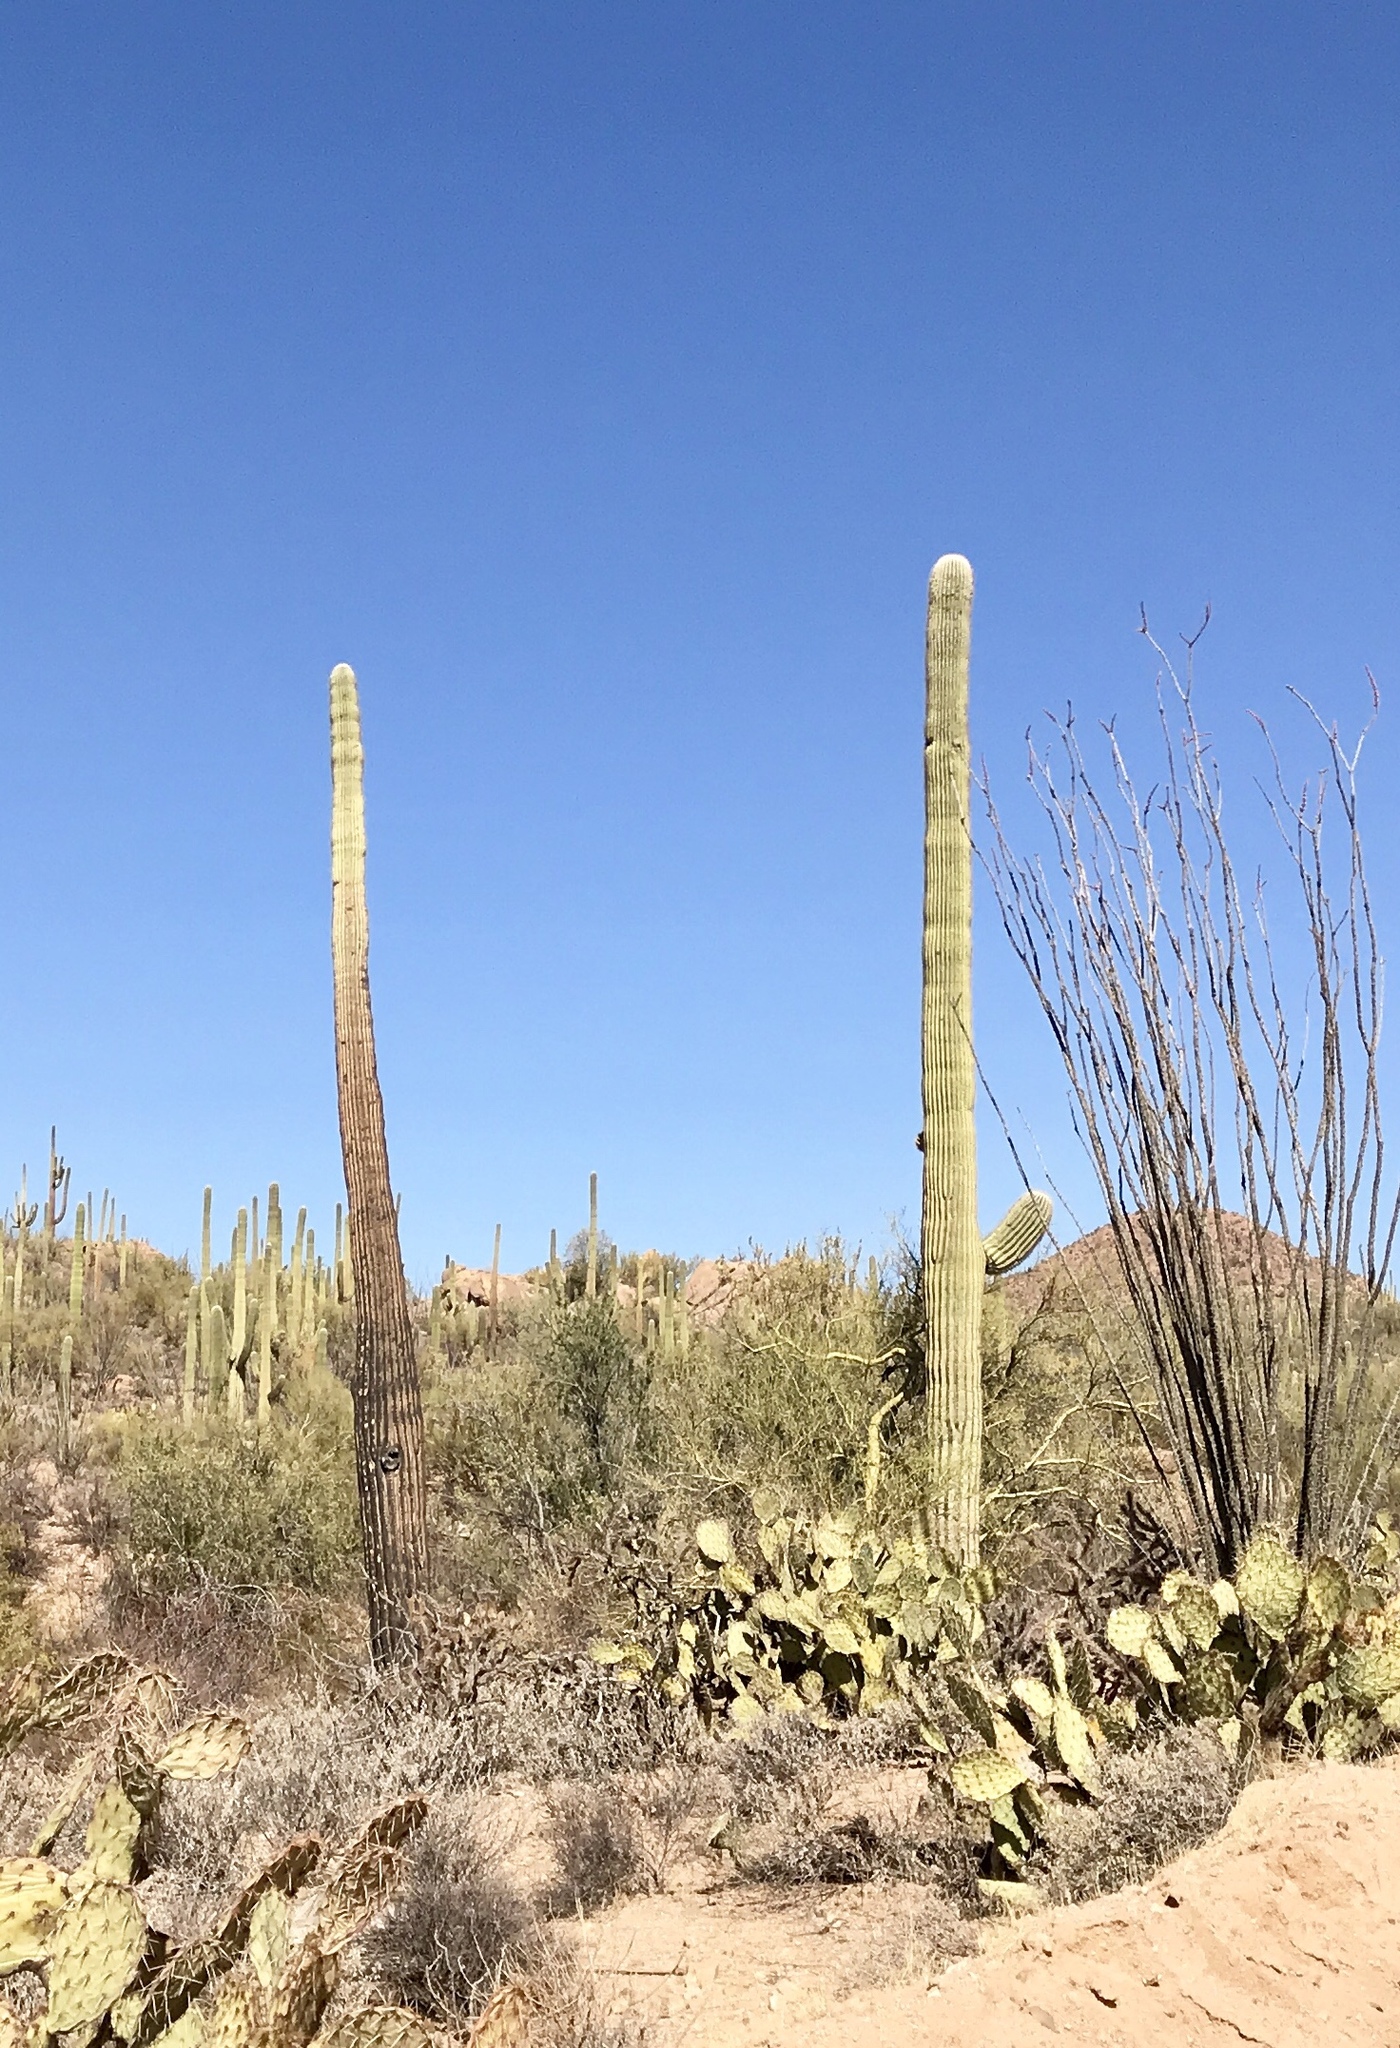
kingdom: Plantae
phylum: Tracheophyta
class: Magnoliopsida
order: Caryophyllales
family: Cactaceae
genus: Carnegiea
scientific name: Carnegiea gigantea
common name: Saguaro
